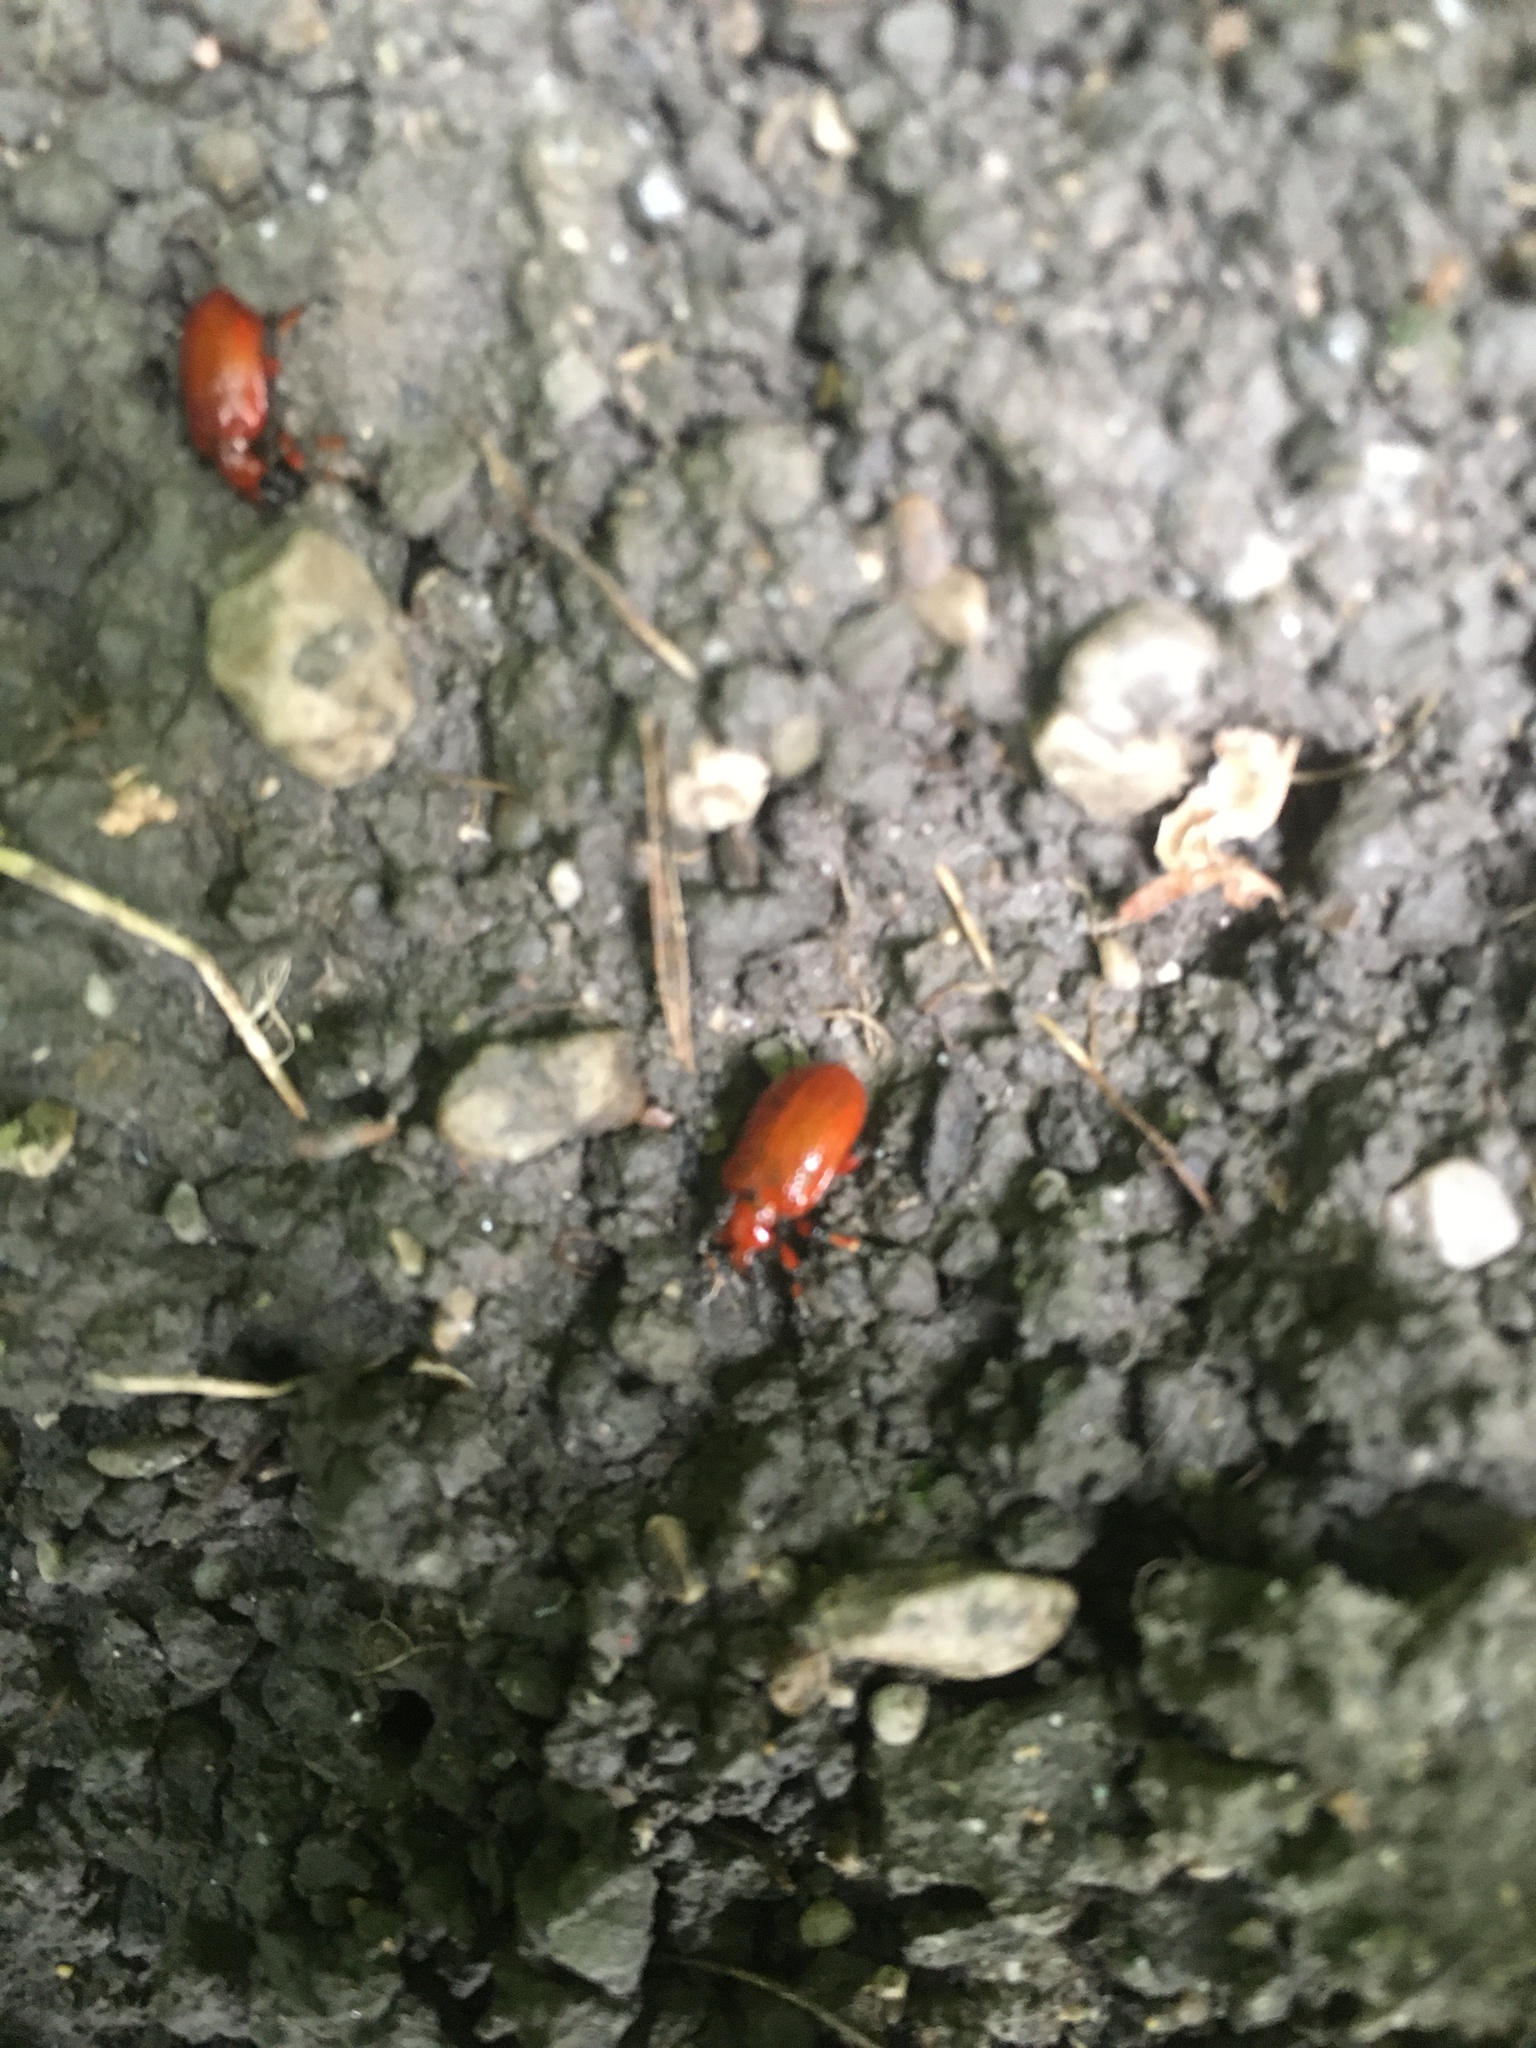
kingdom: Animalia
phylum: Arthropoda
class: Insecta
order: Coleoptera
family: Chrysomelidae
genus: Lilioceris
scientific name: Lilioceris merdigera
